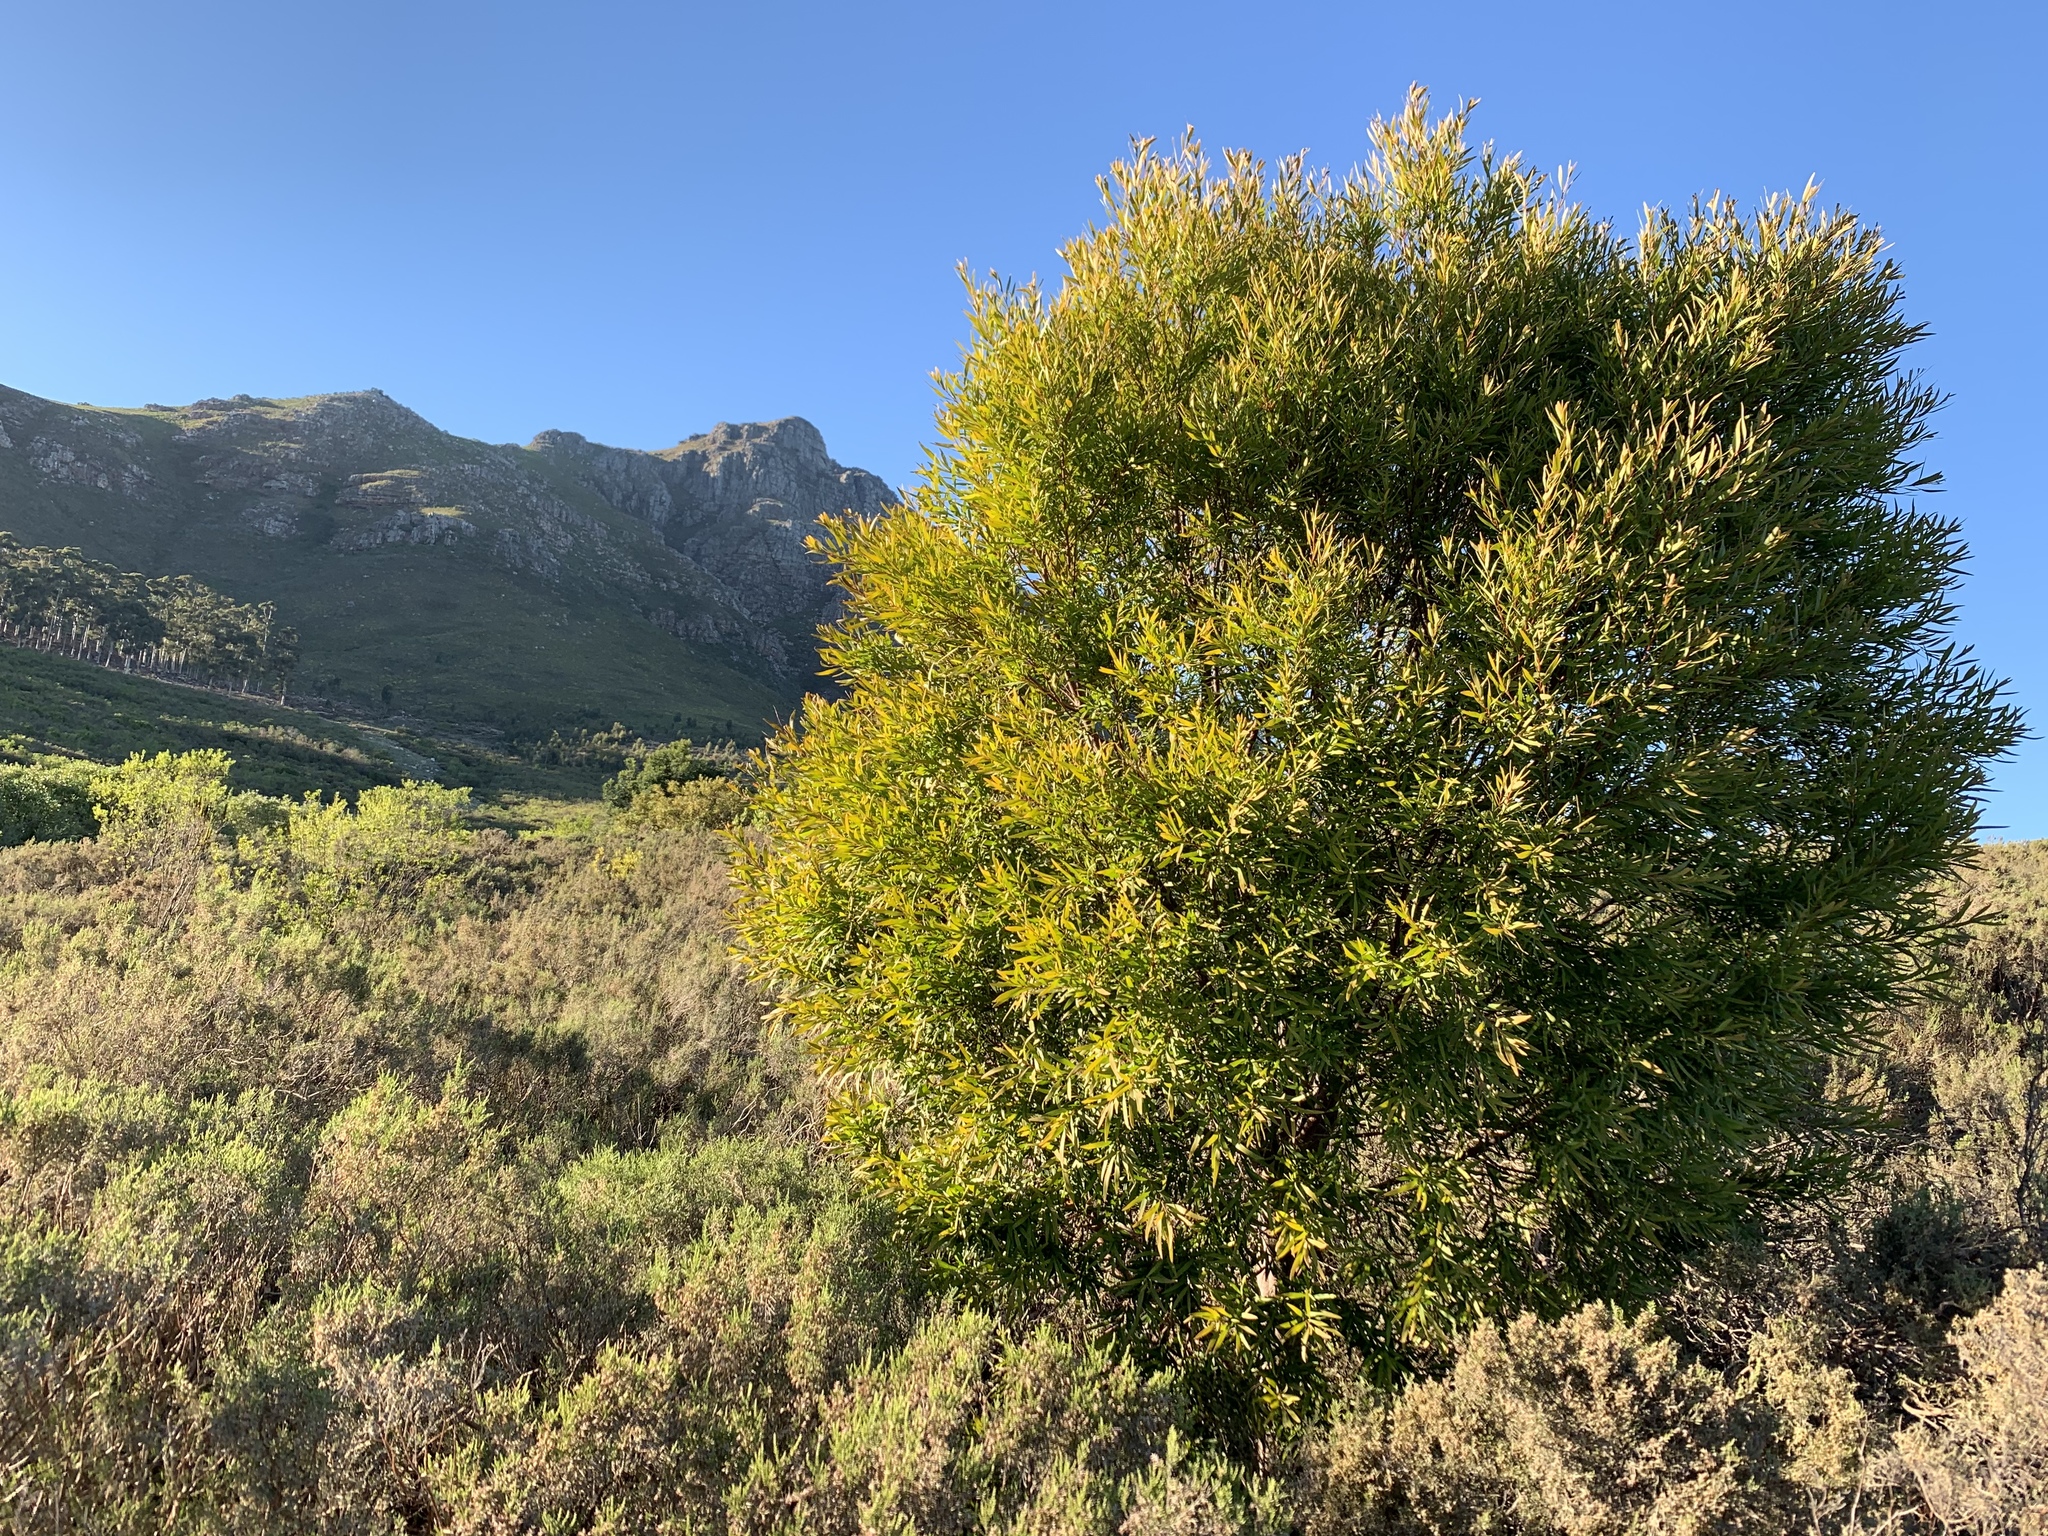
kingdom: Plantae
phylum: Tracheophyta
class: Magnoliopsida
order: Proteales
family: Proteaceae
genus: Hakea
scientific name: Hakea salicifolia
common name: Willow hakea
